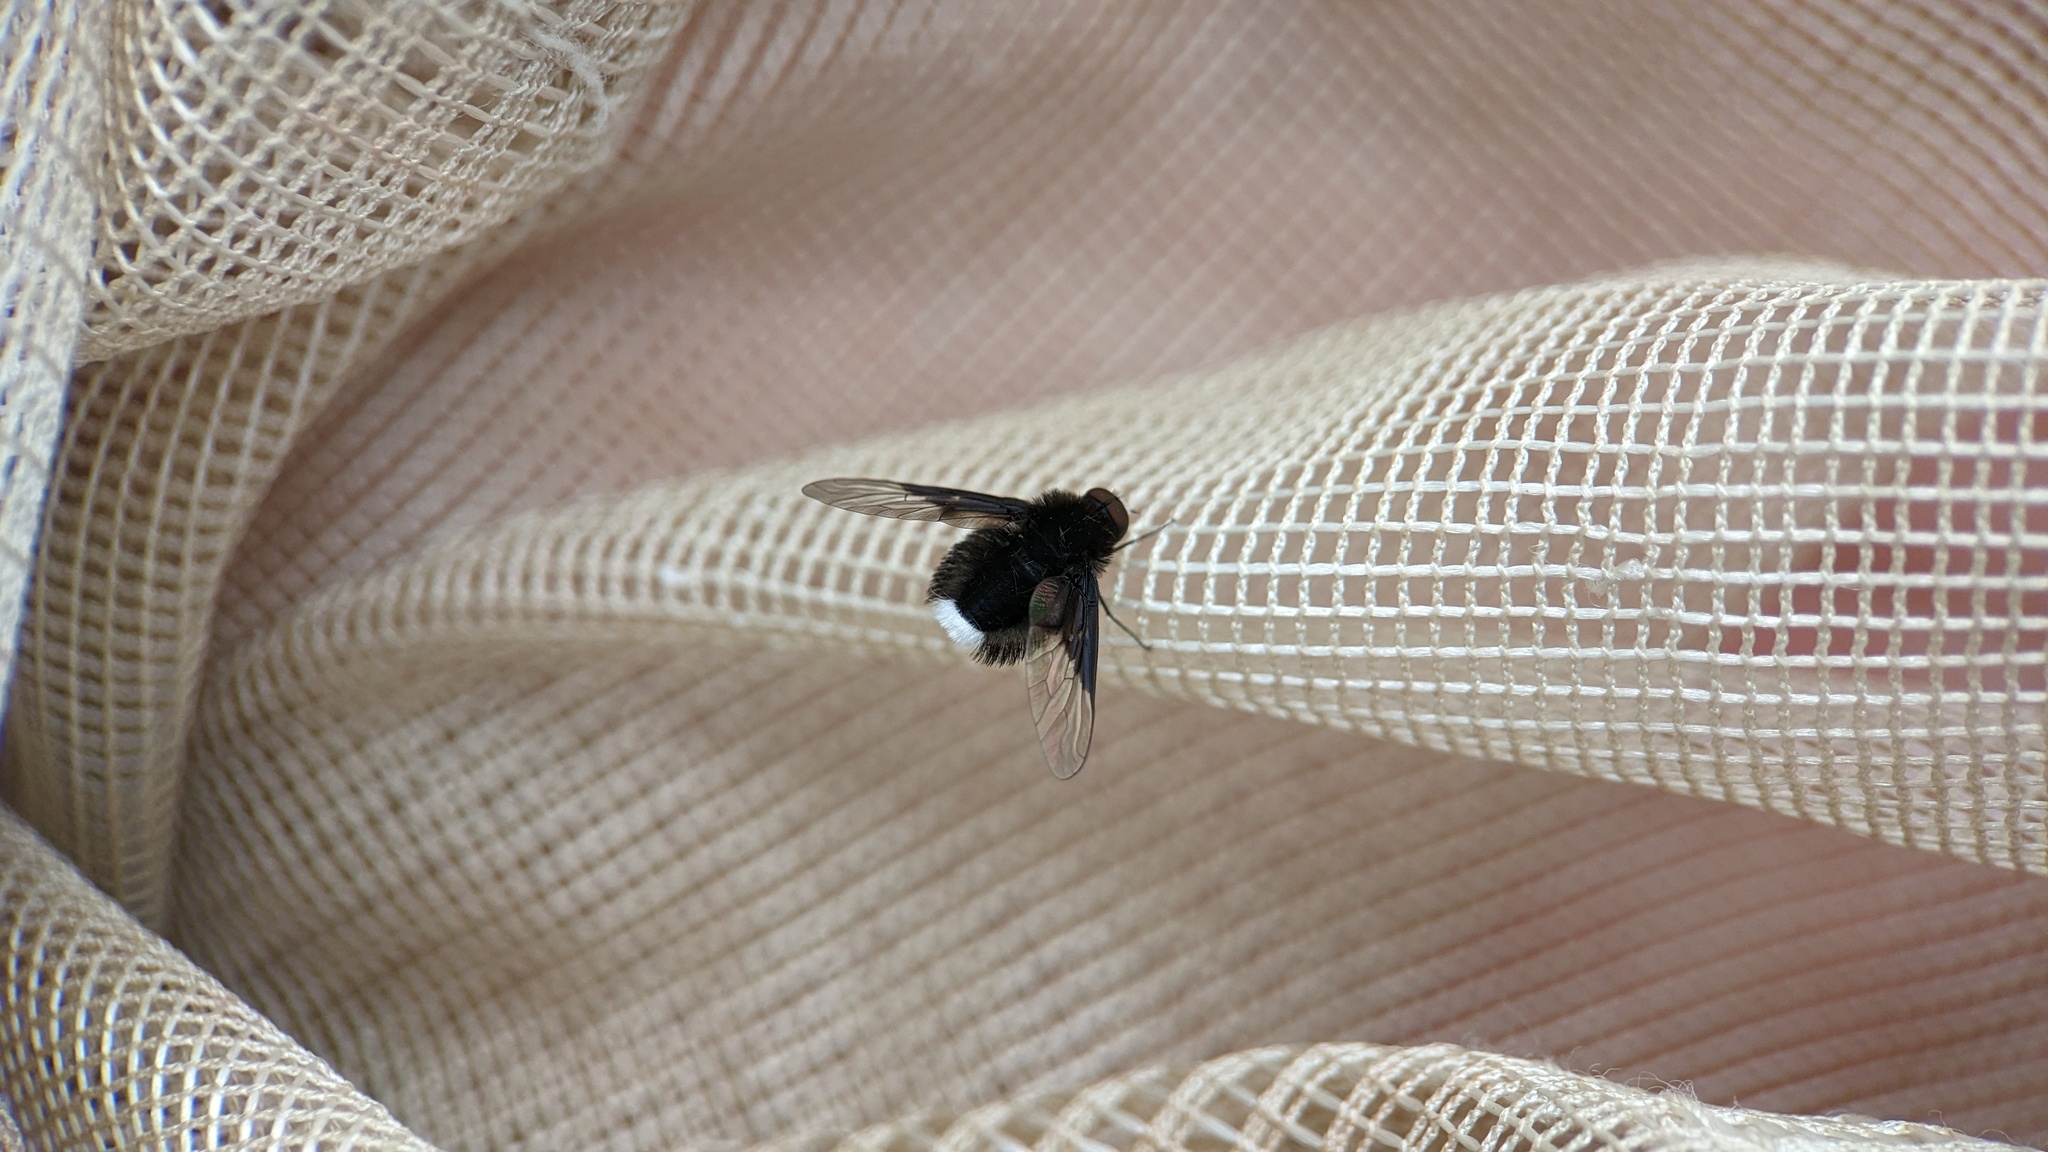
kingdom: Animalia
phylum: Arthropoda
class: Insecta
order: Diptera
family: Bombyliidae
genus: Ogcodocera
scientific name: Ogcodocera leucoprocta
